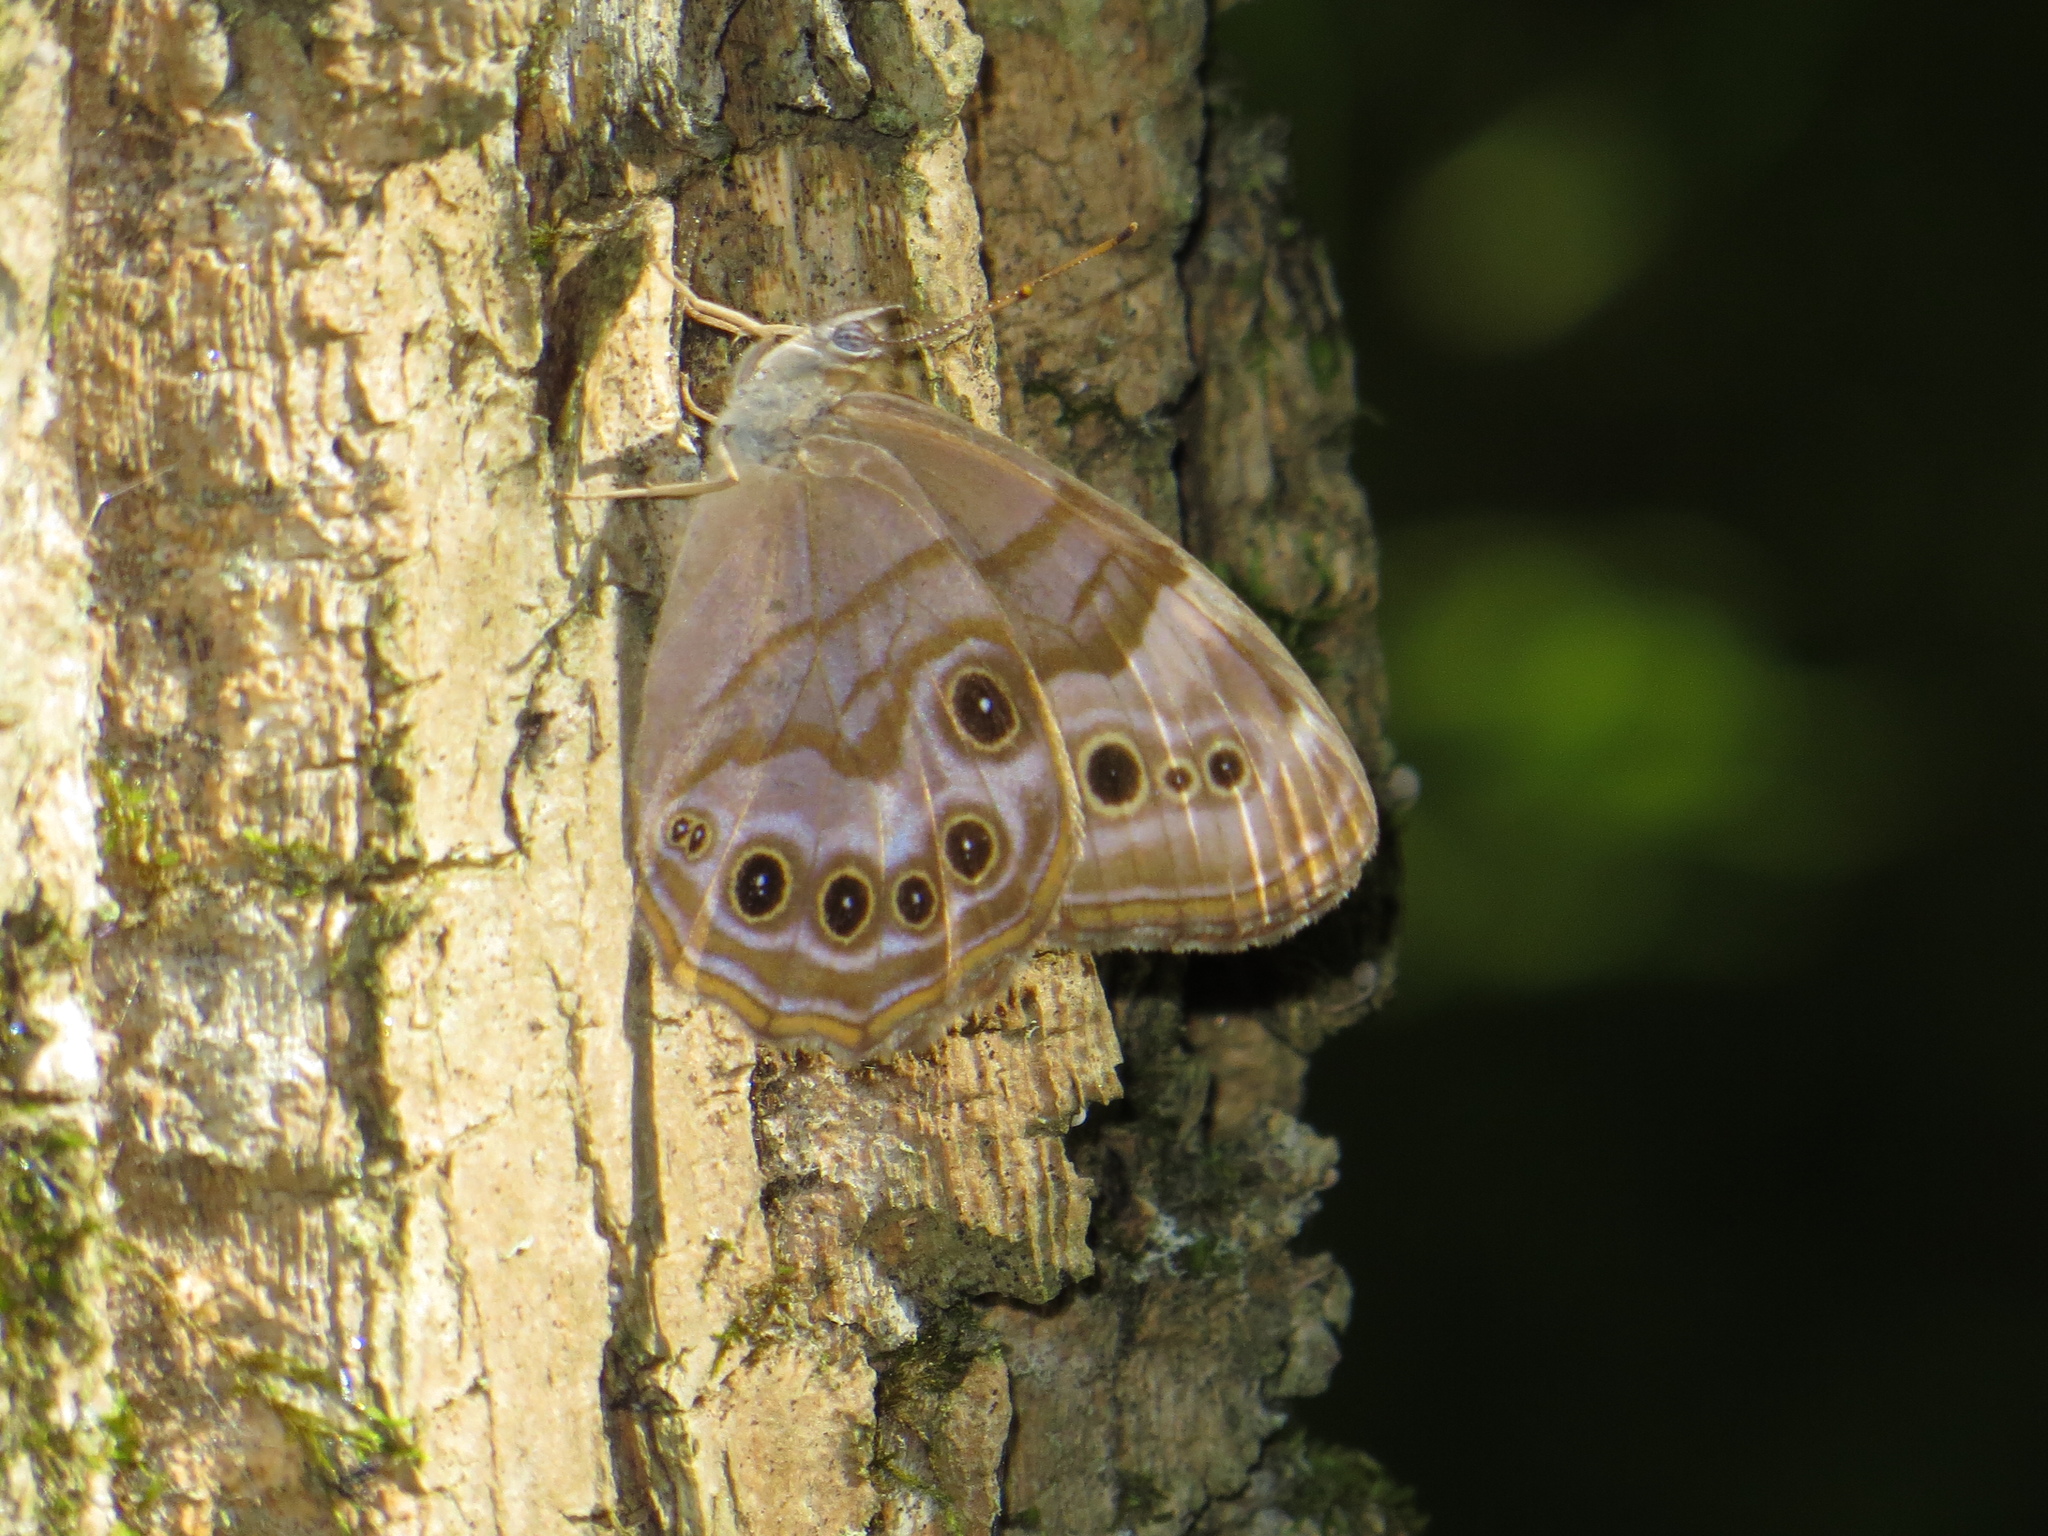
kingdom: Animalia
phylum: Arthropoda
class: Insecta
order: Lepidoptera
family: Nymphalidae
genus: Lethe
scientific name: Lethe anthedon
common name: Northern pearly-eye
